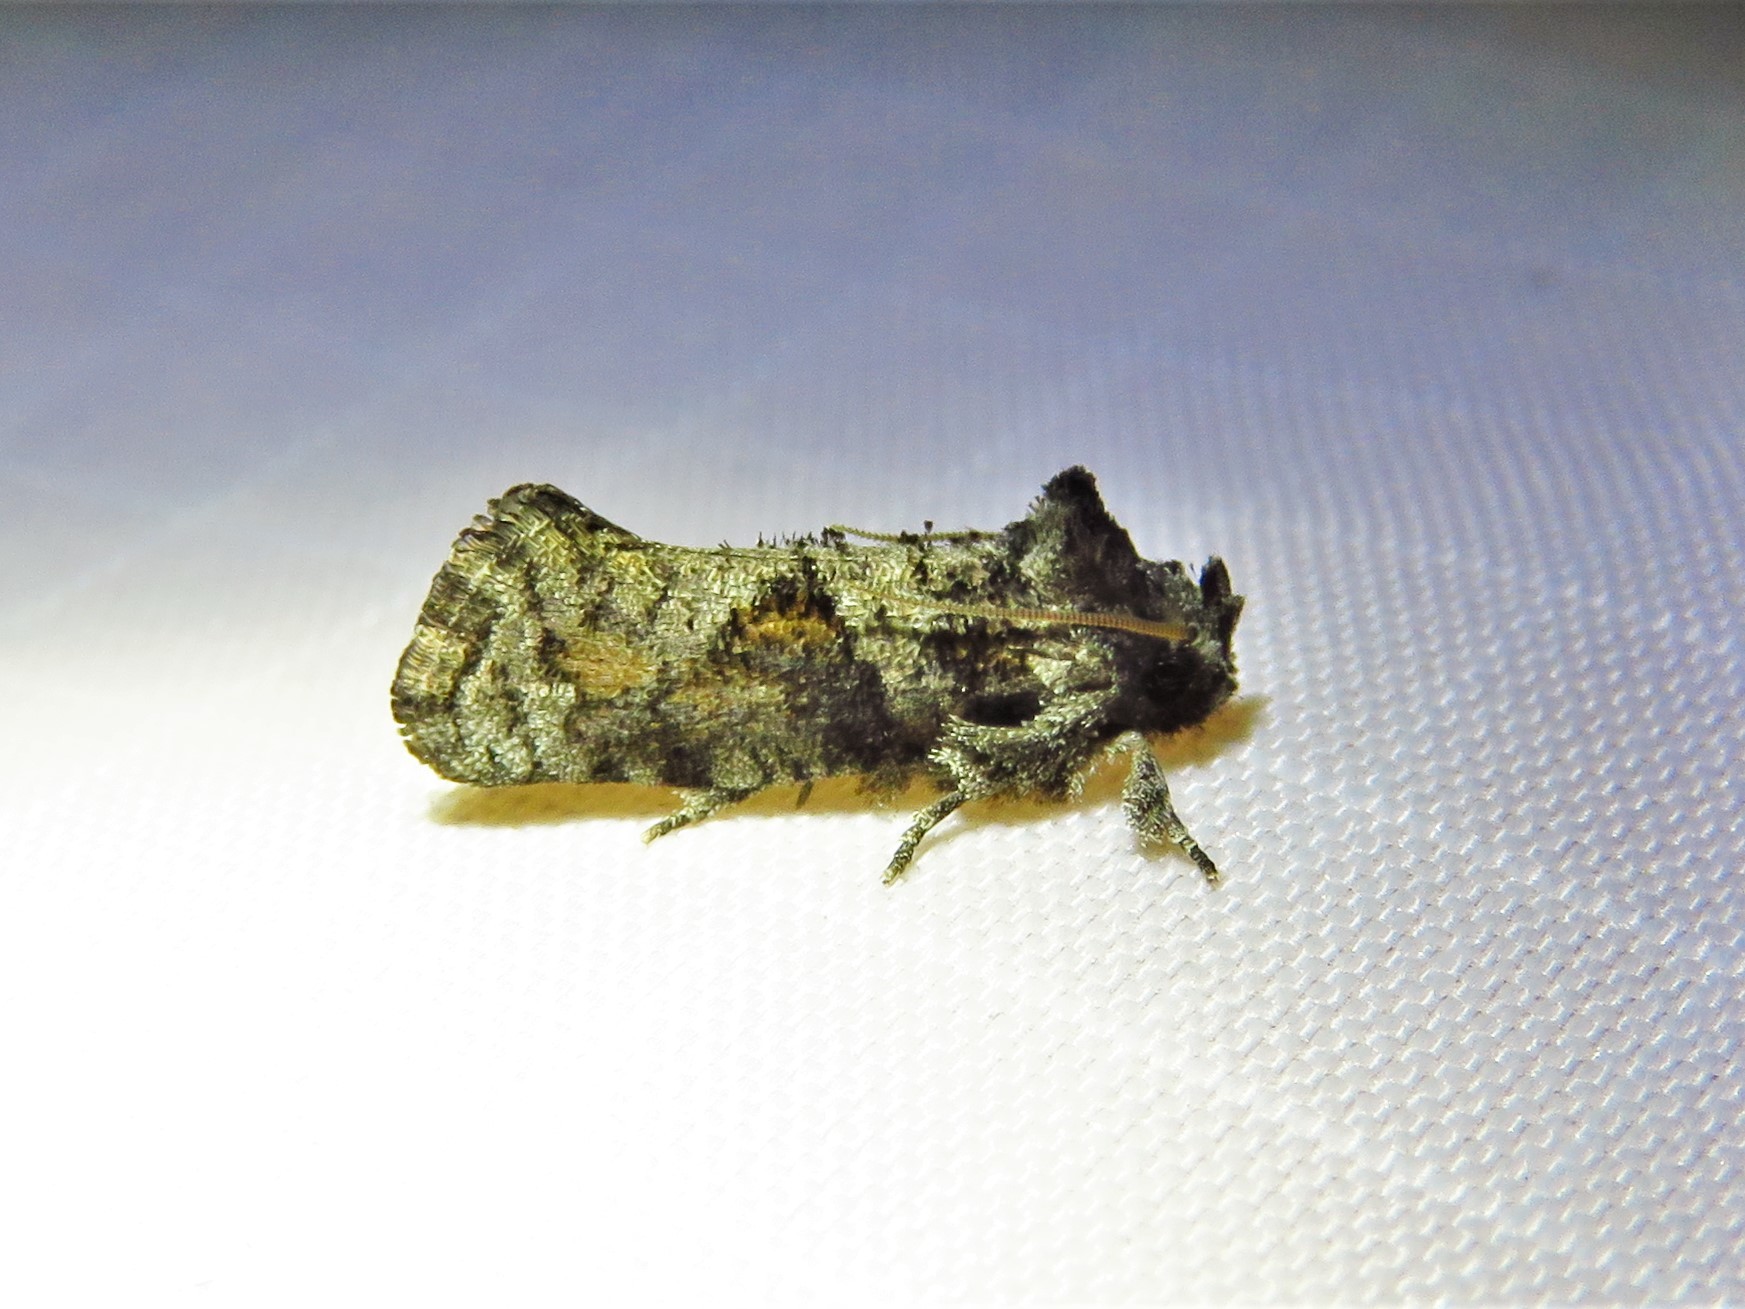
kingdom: Animalia
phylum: Arthropoda
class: Insecta
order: Lepidoptera
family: Tineidae
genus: Acrolophus
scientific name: Acrolophus piger
